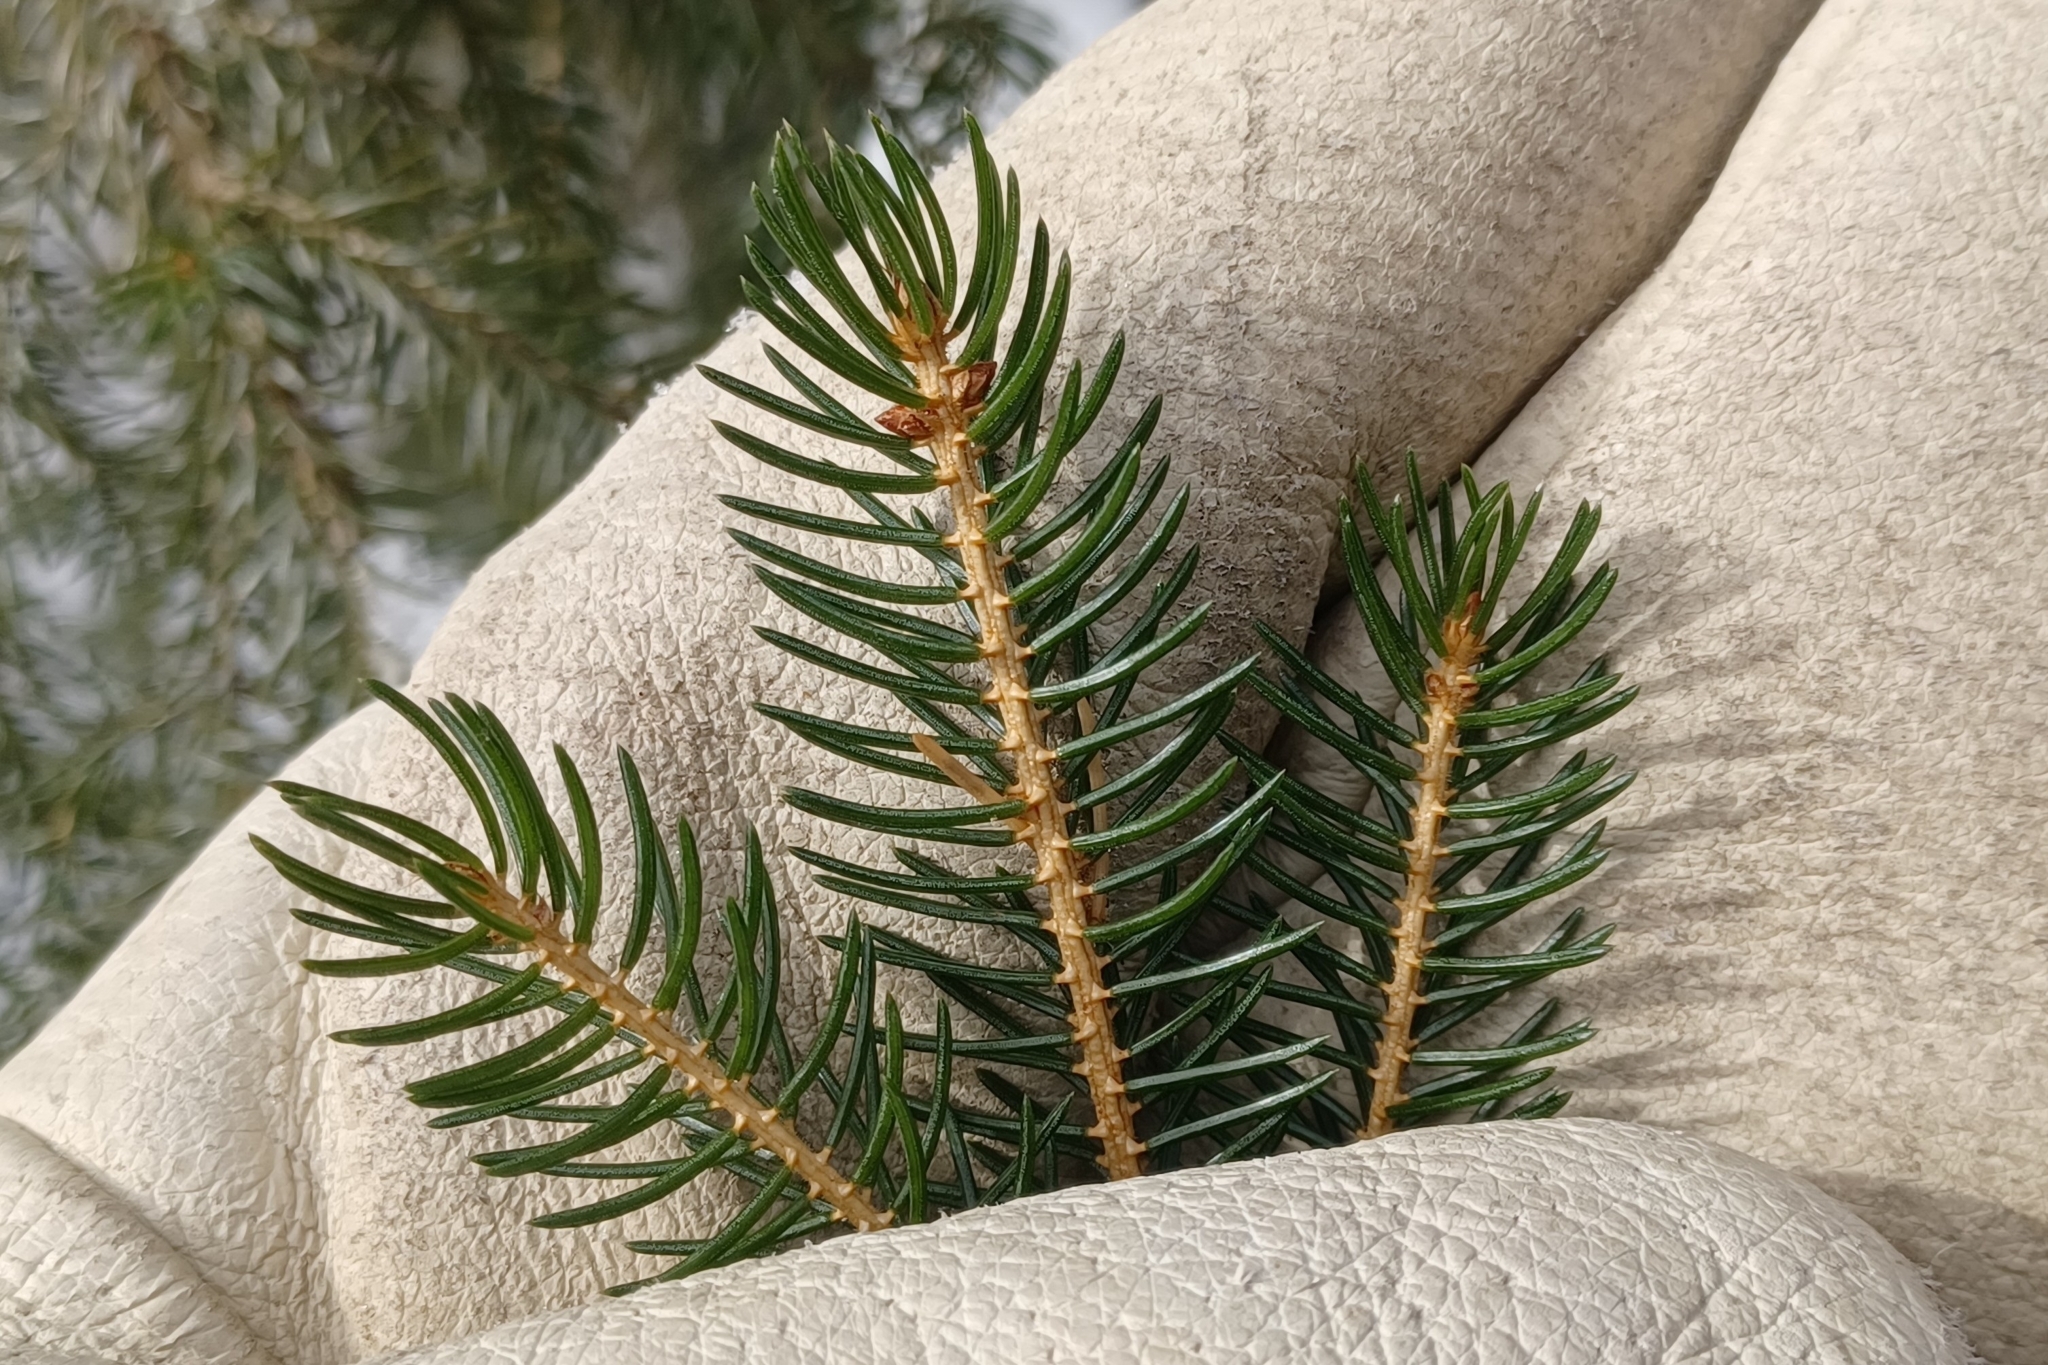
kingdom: Plantae
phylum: Tracheophyta
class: Pinopsida
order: Pinales
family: Pinaceae
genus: Picea
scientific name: Picea rubens
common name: Red spruce
